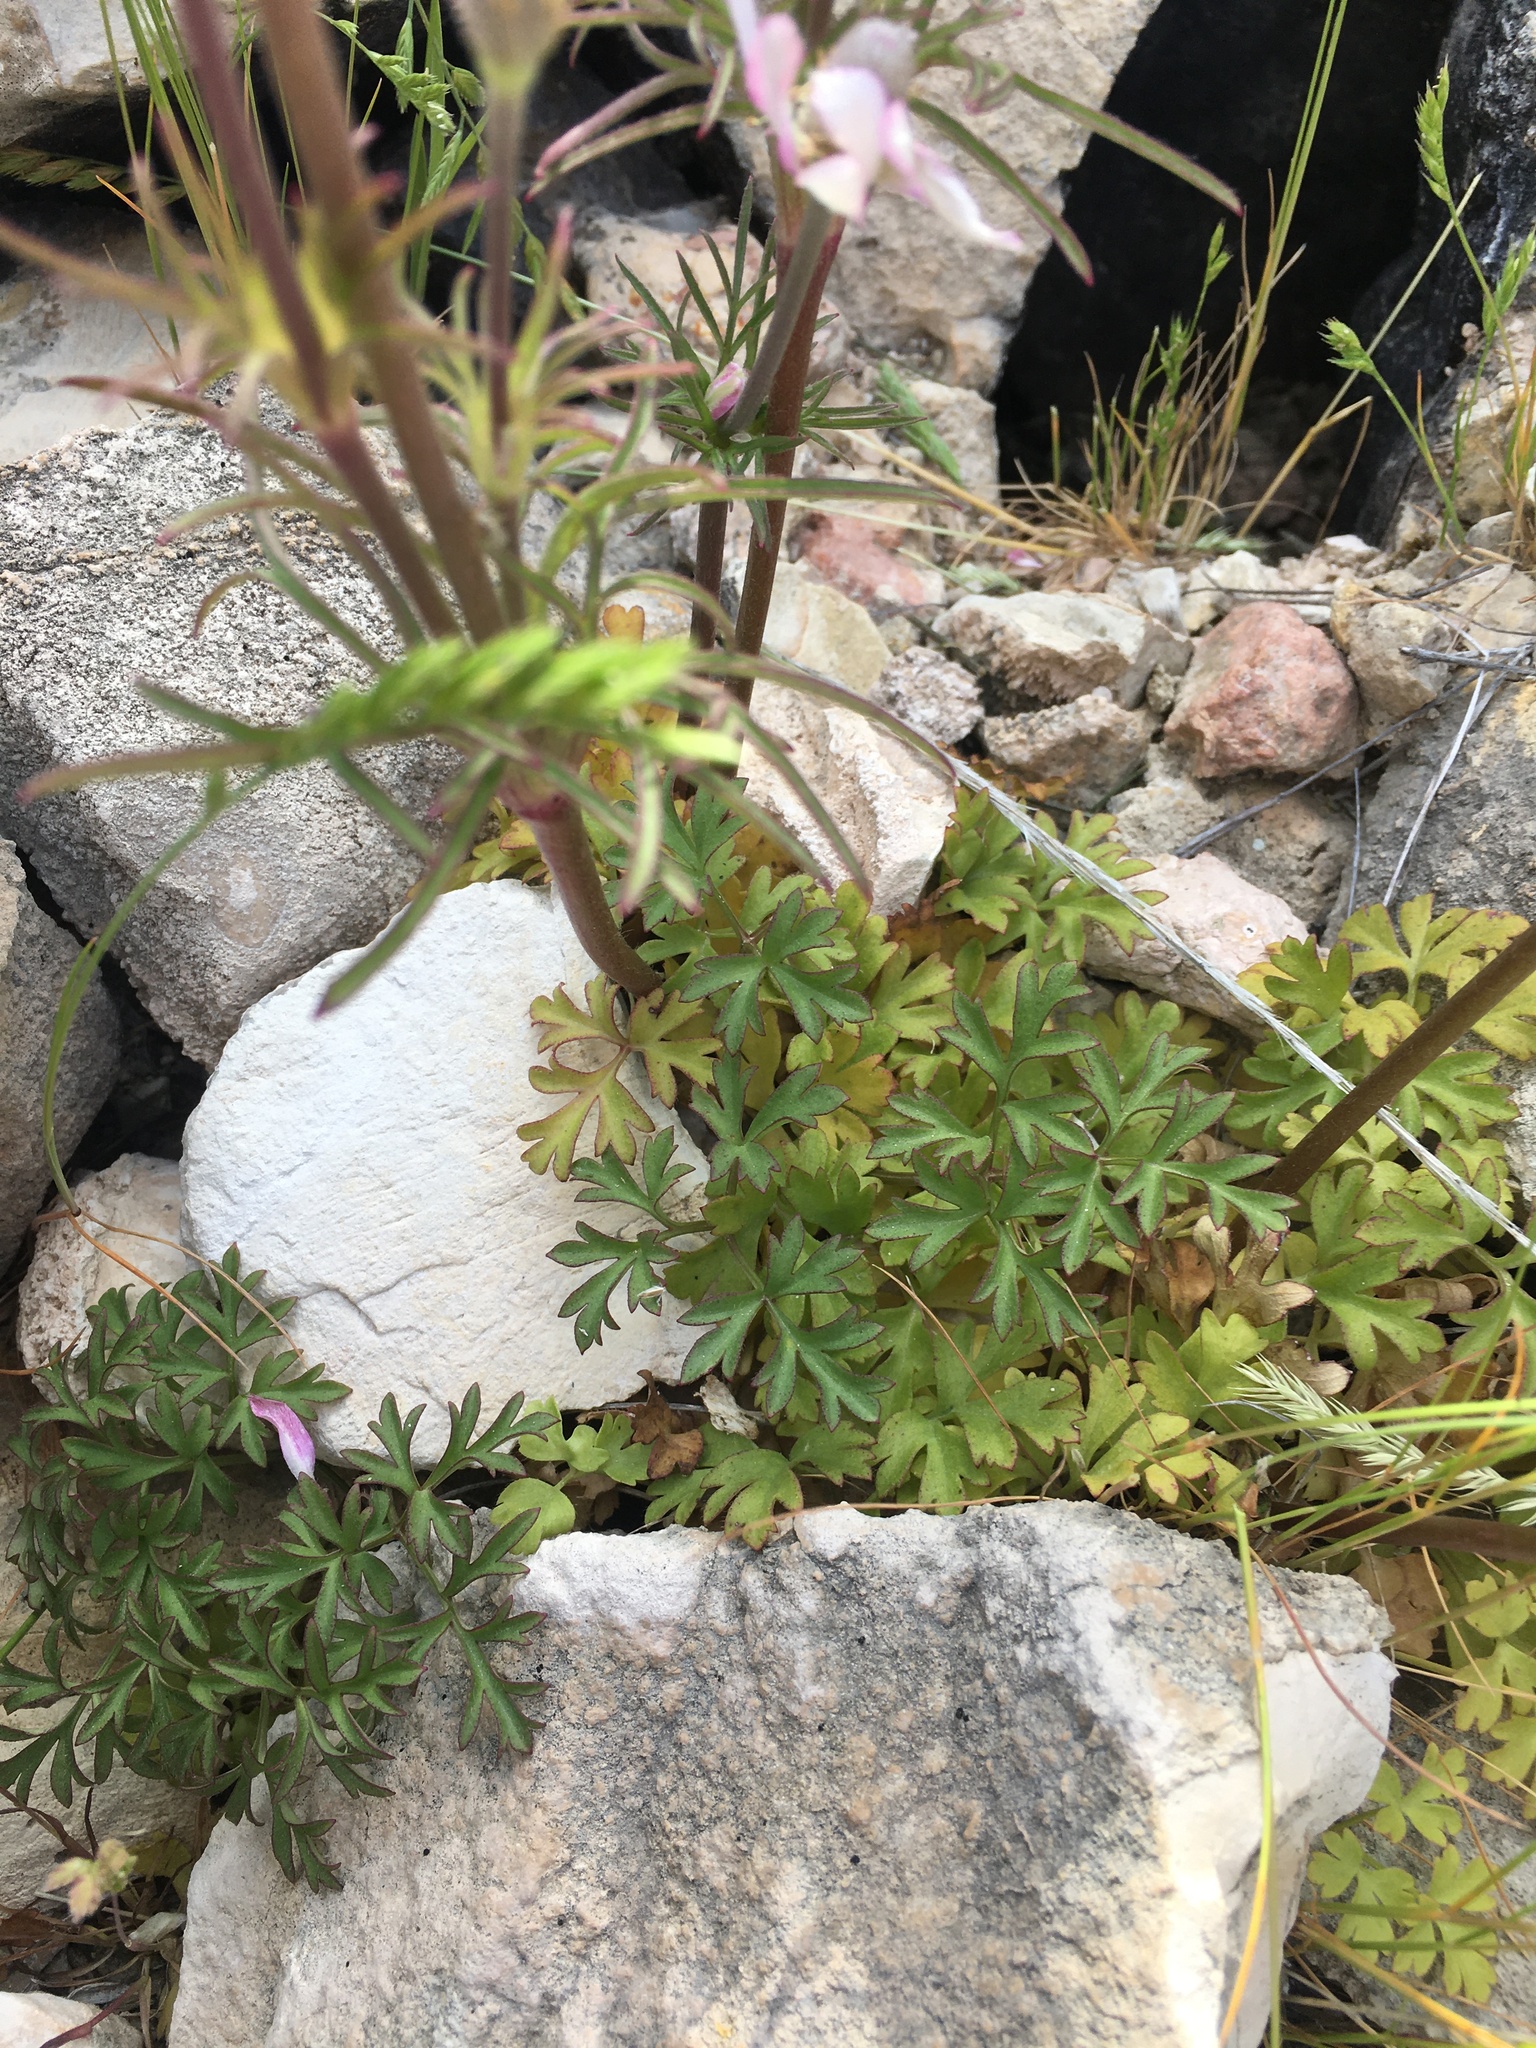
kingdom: Plantae
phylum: Tracheophyta
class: Magnoliopsida
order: Ranunculales
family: Ranunculaceae
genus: Anemone
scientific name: Anemone tuberosa
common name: Desert anemone
